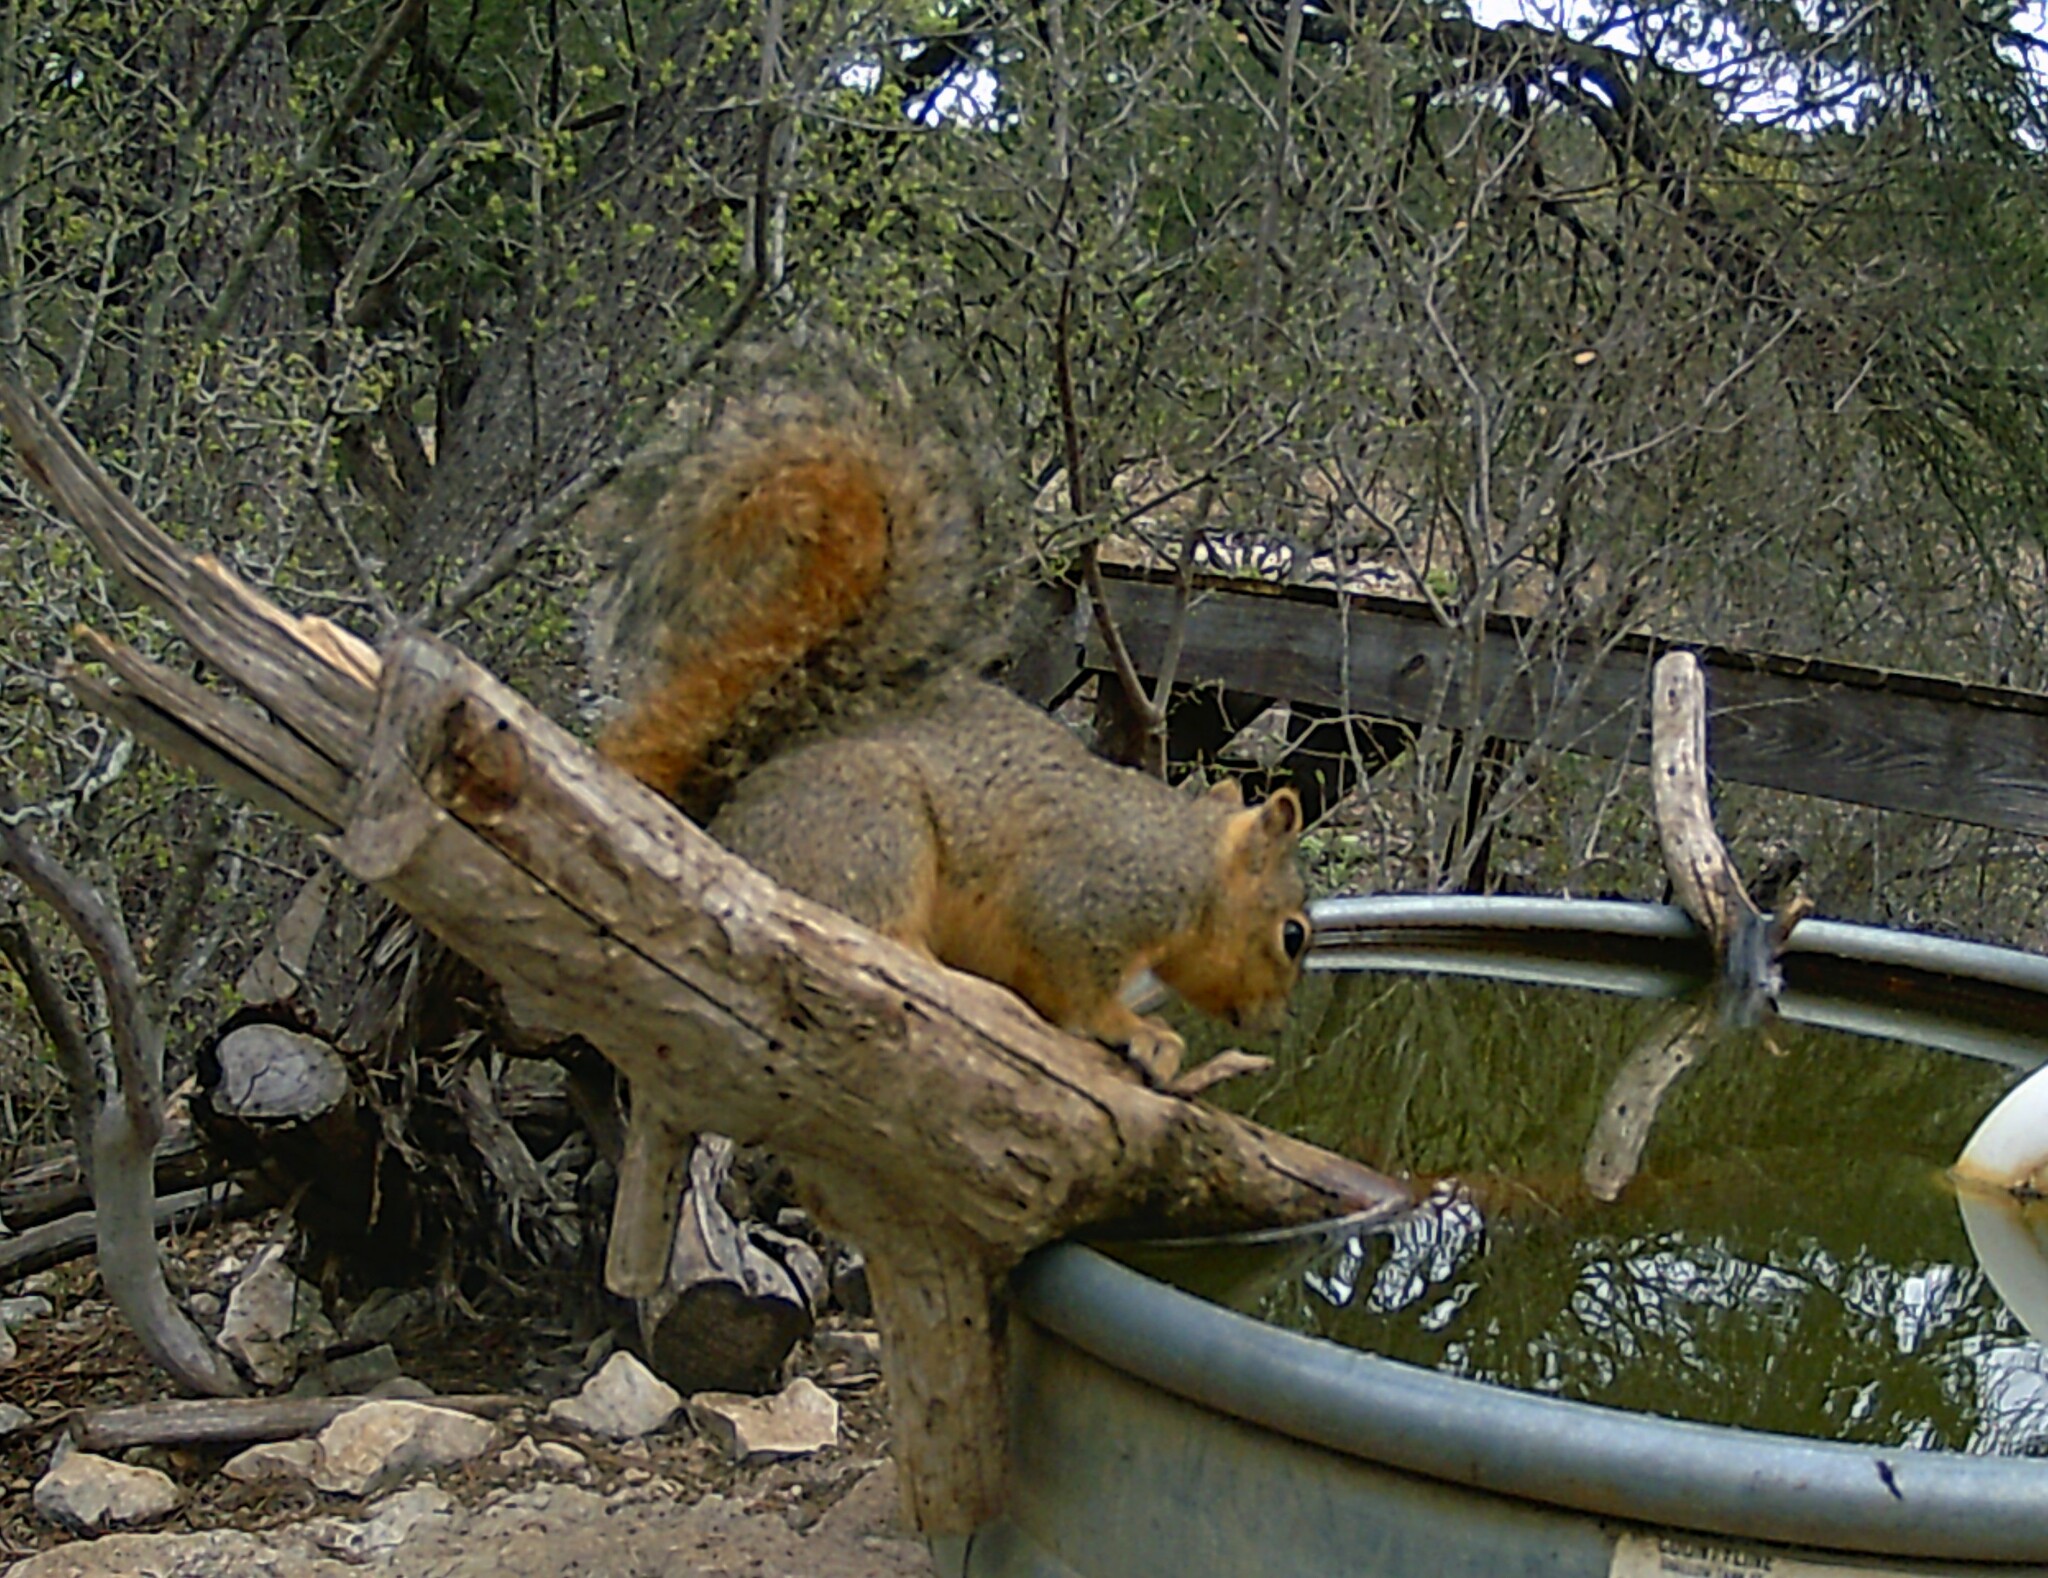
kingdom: Animalia
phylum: Chordata
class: Mammalia
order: Rodentia
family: Sciuridae
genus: Sciurus
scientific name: Sciurus niger
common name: Fox squirrel
